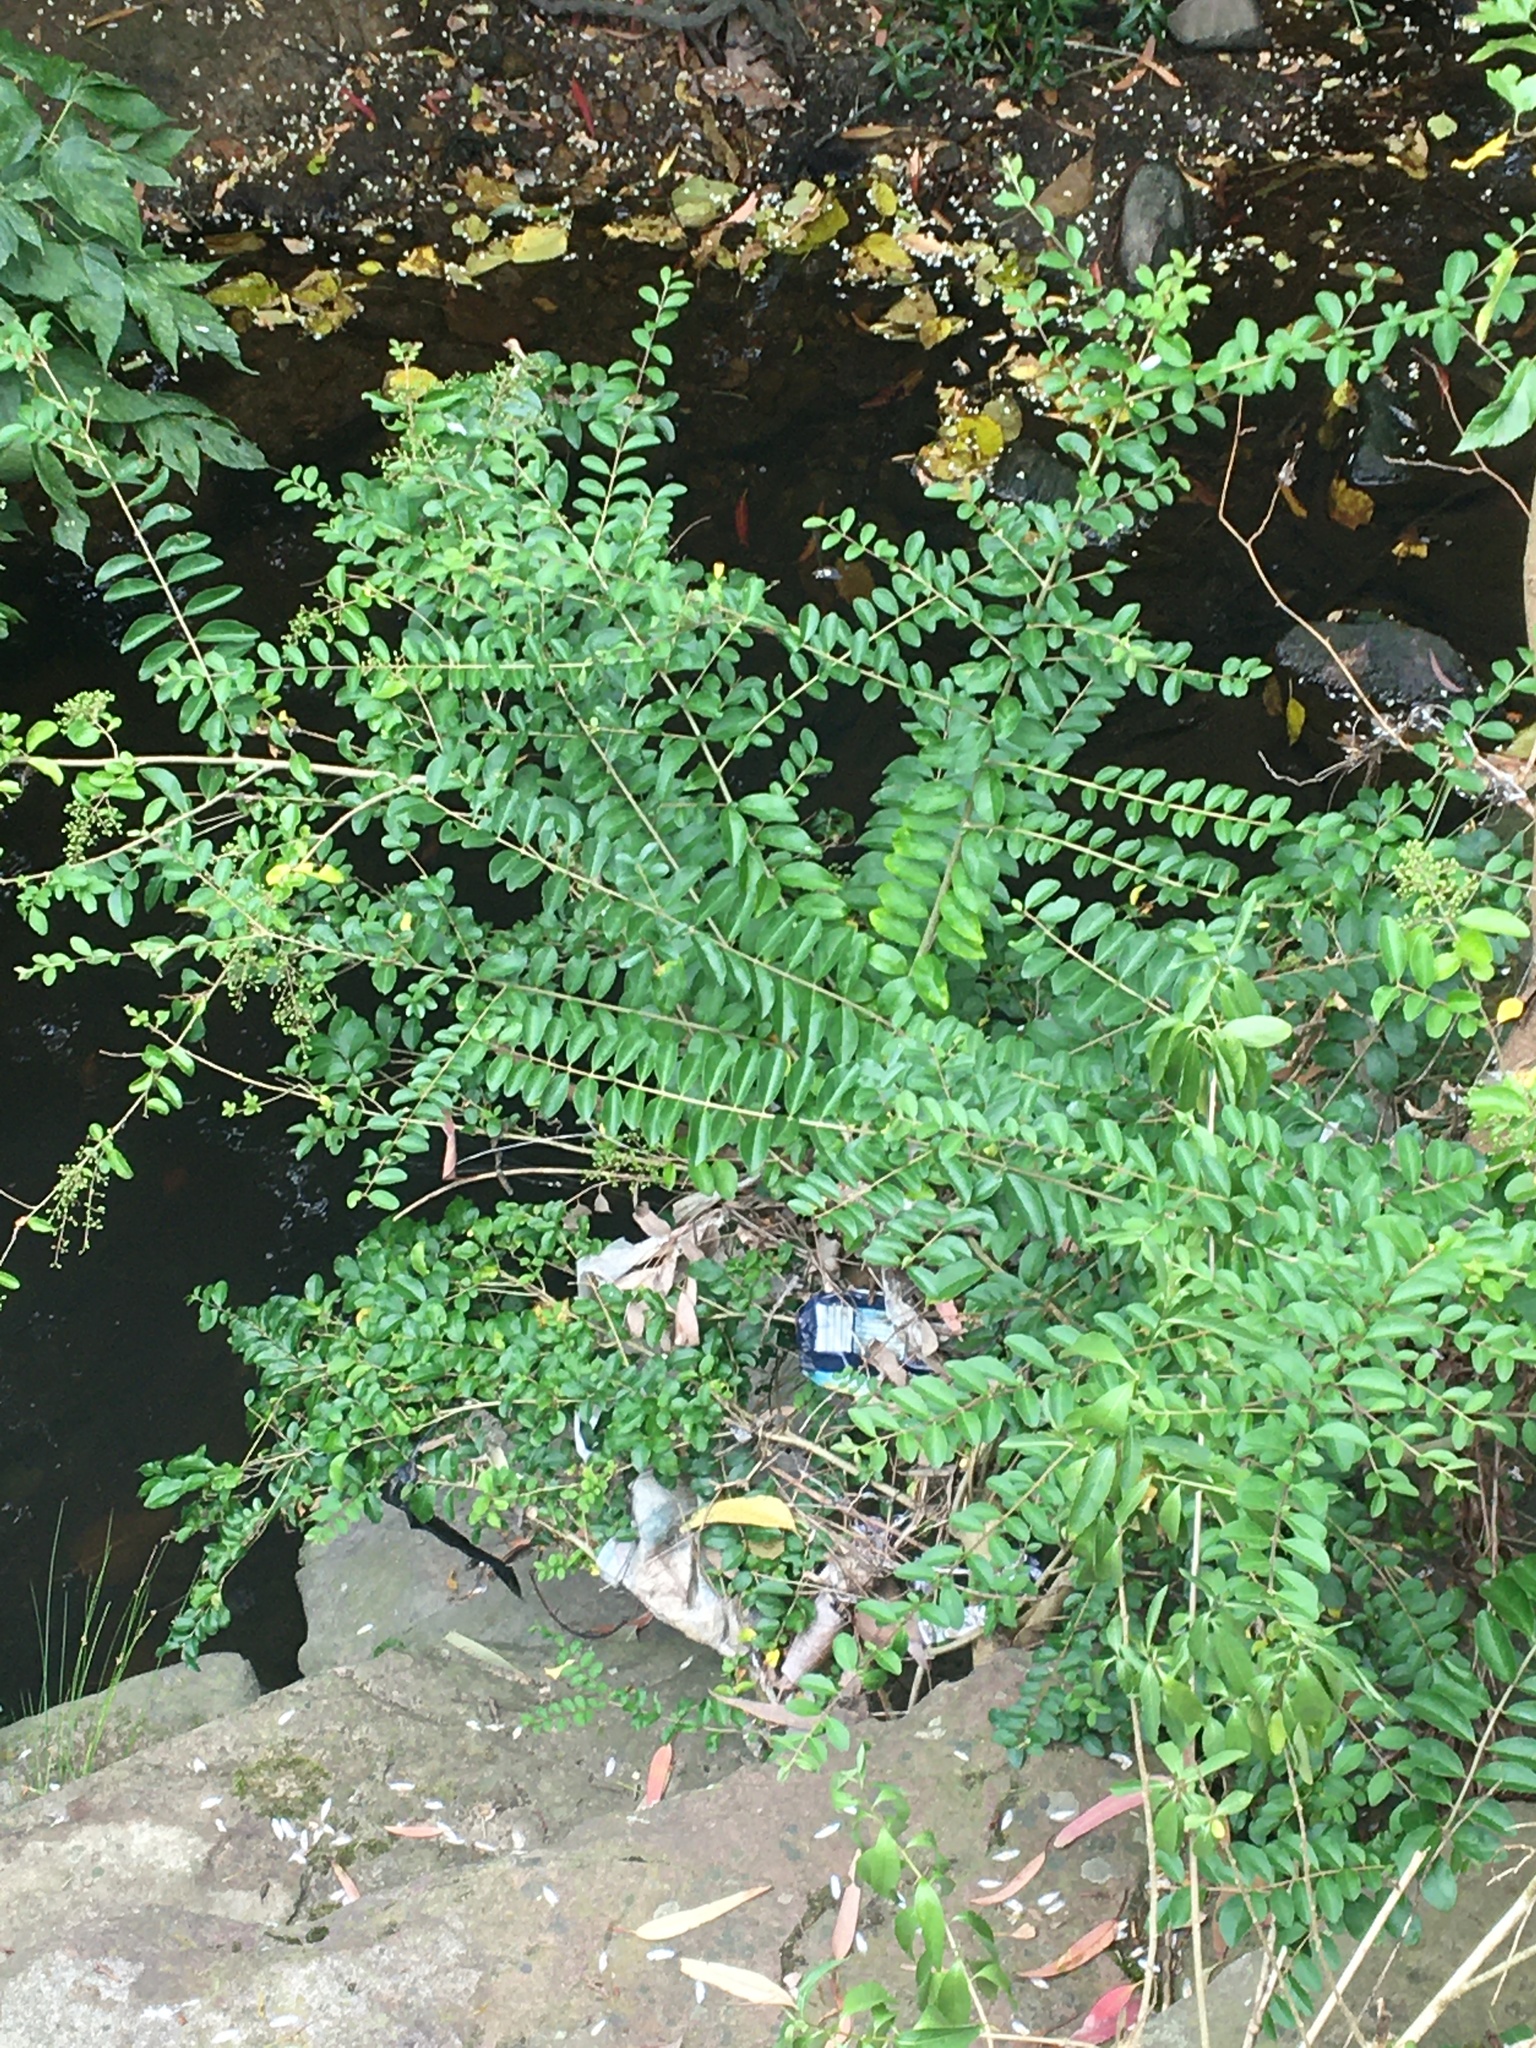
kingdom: Plantae
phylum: Tracheophyta
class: Magnoliopsida
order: Lamiales
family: Oleaceae
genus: Ligustrum
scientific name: Ligustrum sinense
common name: Chinese privet
